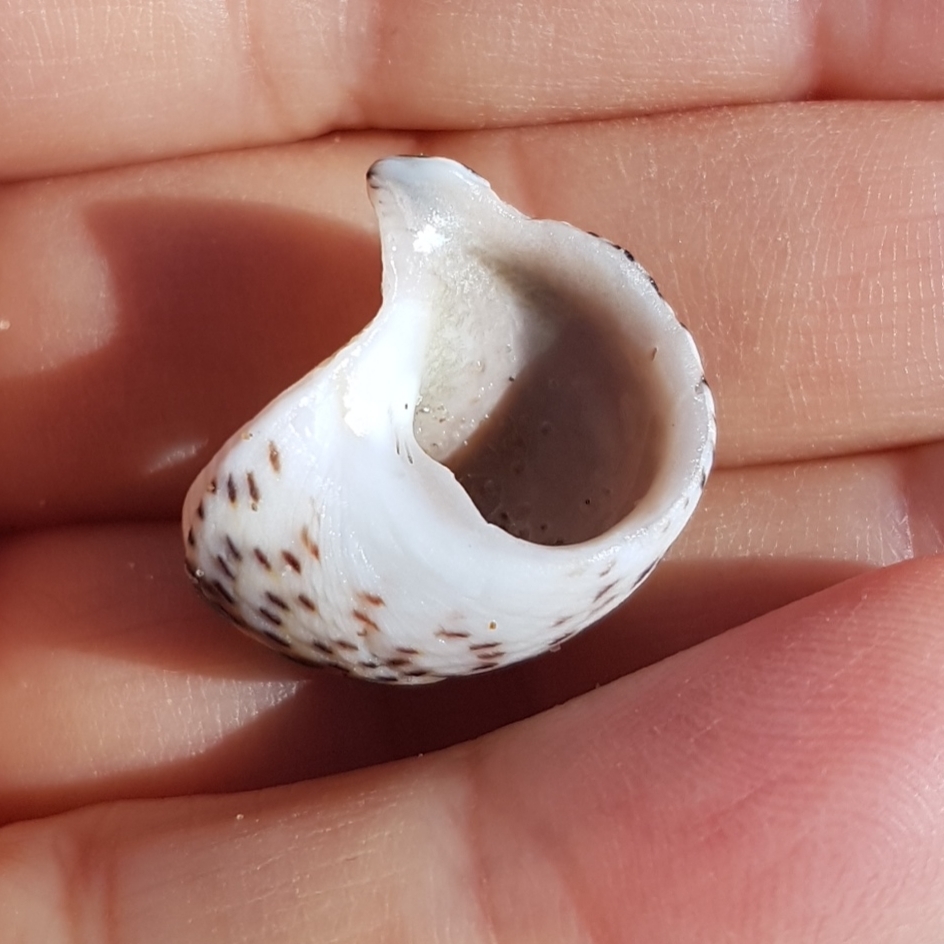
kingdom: Animalia
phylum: Mollusca
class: Gastropoda
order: Trochida
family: Trochidae
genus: Phorcus
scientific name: Phorcus turbinatus
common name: Turbinate monodont
